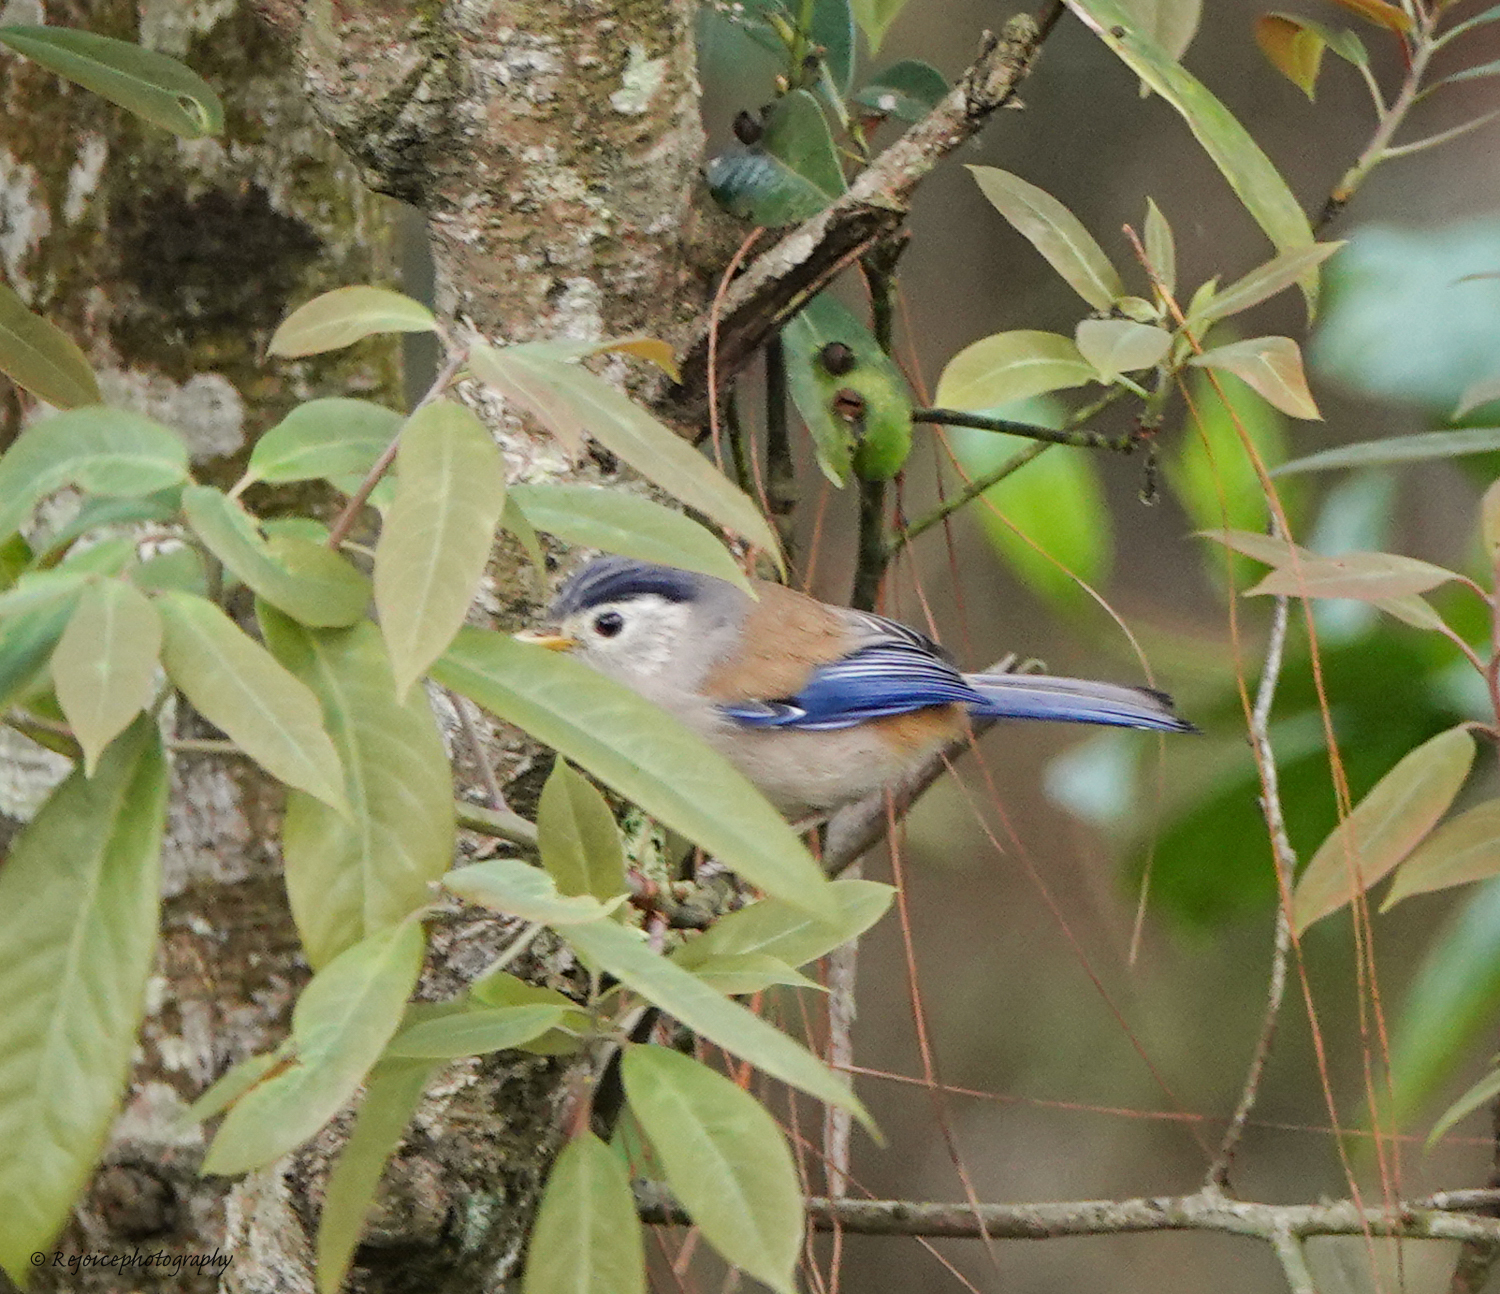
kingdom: Animalia
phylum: Chordata
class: Aves
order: Passeriformes
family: Leiothrichidae
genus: Minla
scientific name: Minla cyanouroptera
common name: Blue-winged minla
